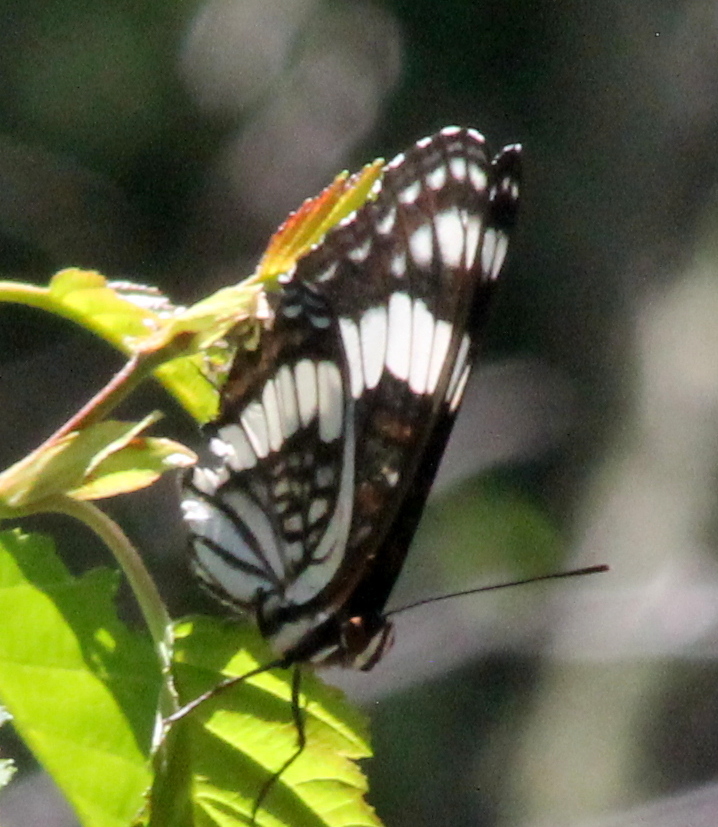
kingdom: Animalia
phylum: Arthropoda
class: Insecta
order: Lepidoptera
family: Nymphalidae
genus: Limenitis
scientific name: Limenitis weidemeyerii
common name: Weidemeyer's admiral
